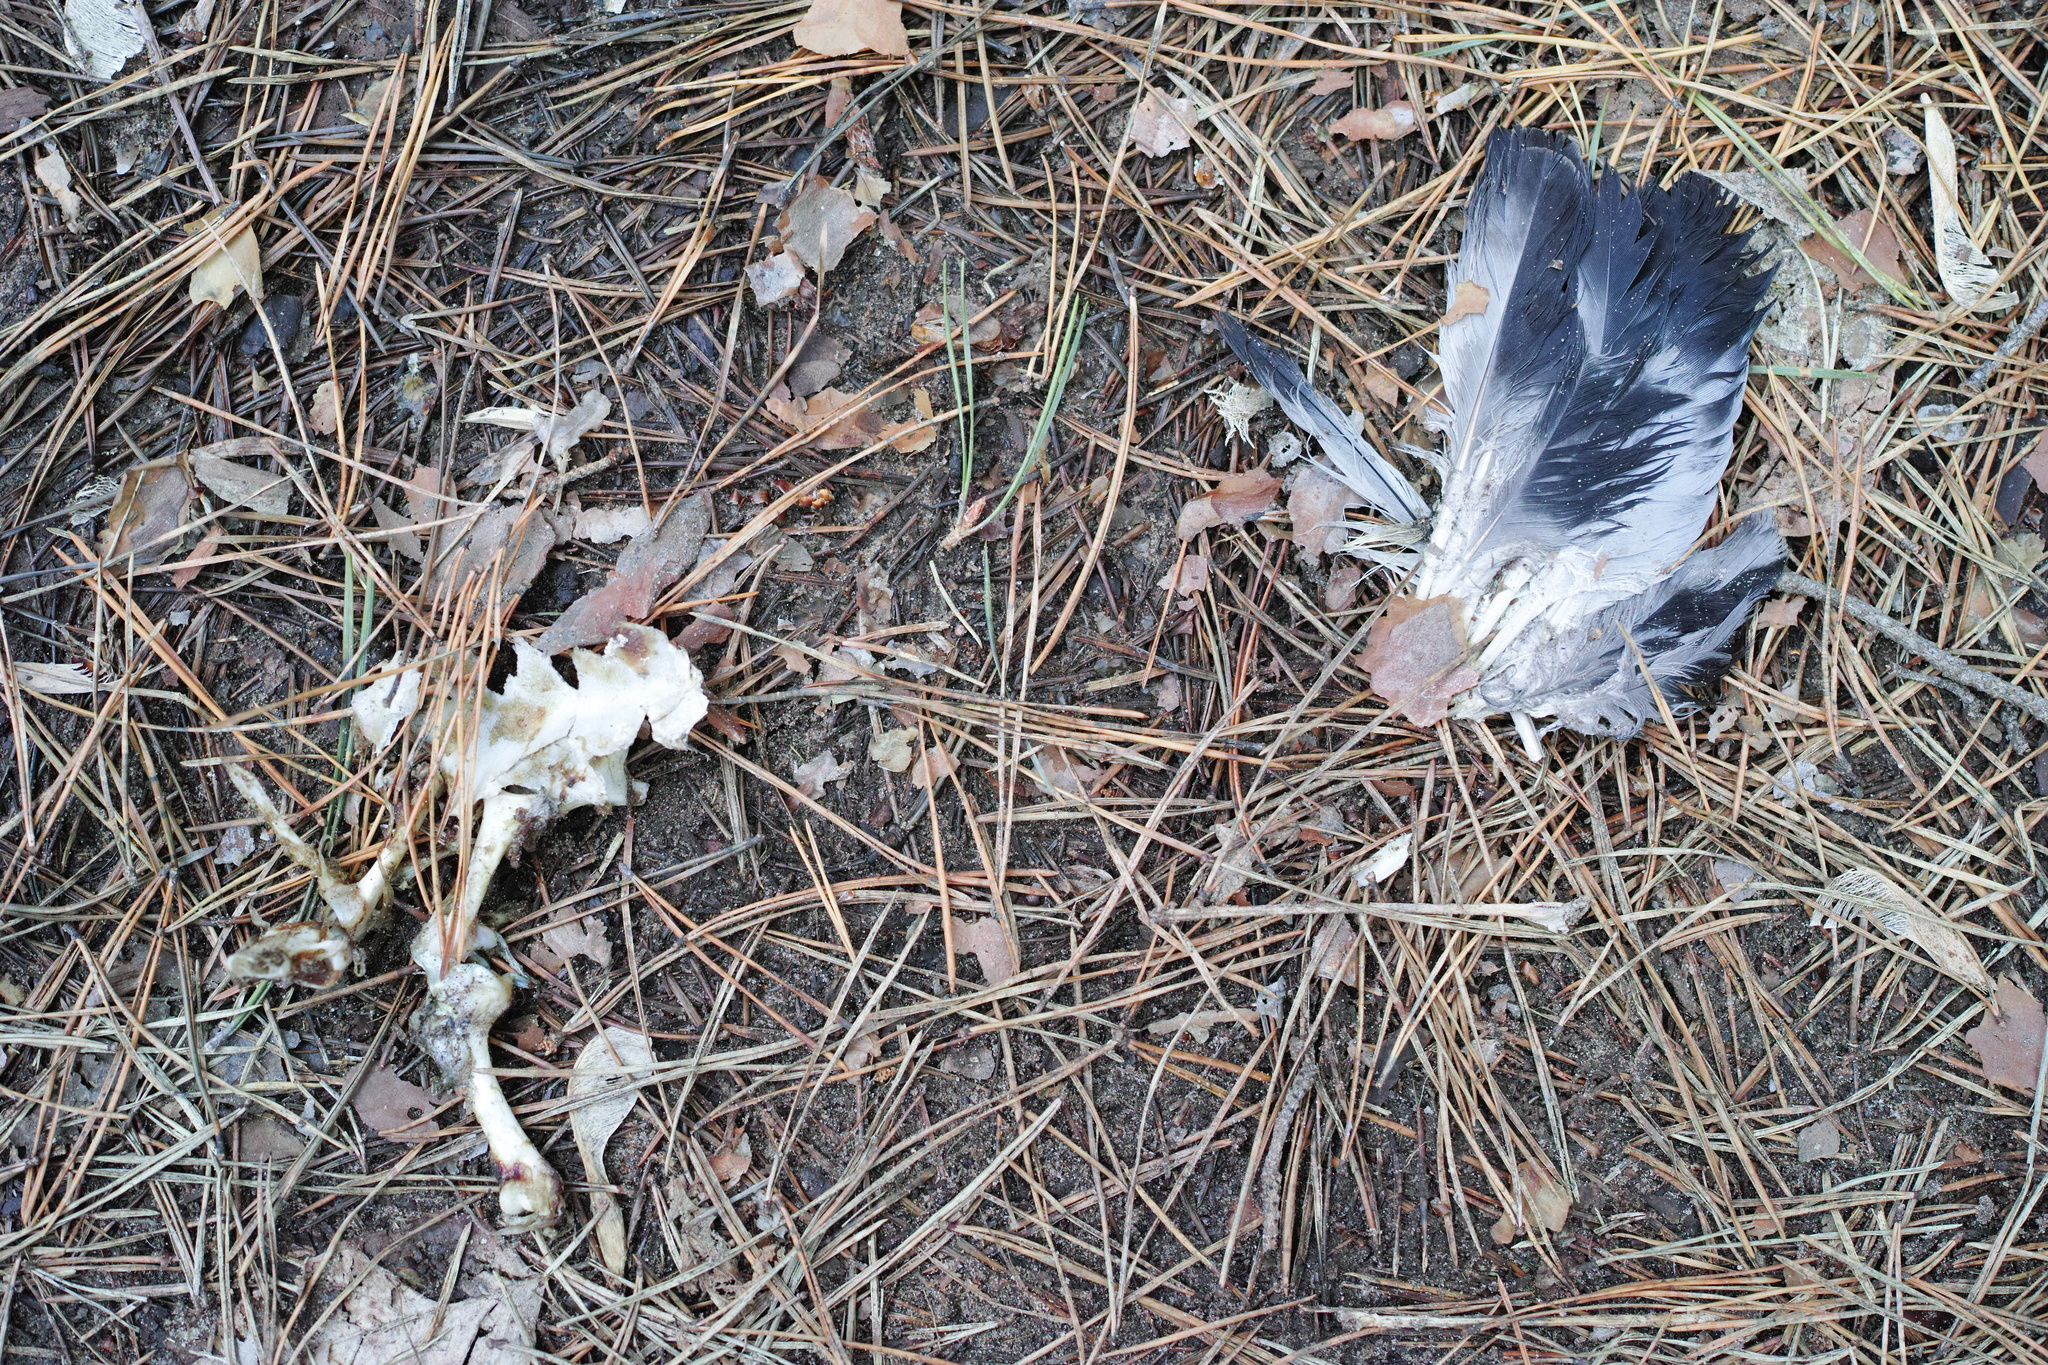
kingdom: Animalia
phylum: Chordata
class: Aves
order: Columbiformes
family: Columbidae
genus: Columba
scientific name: Columba livia
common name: Rock pigeon
